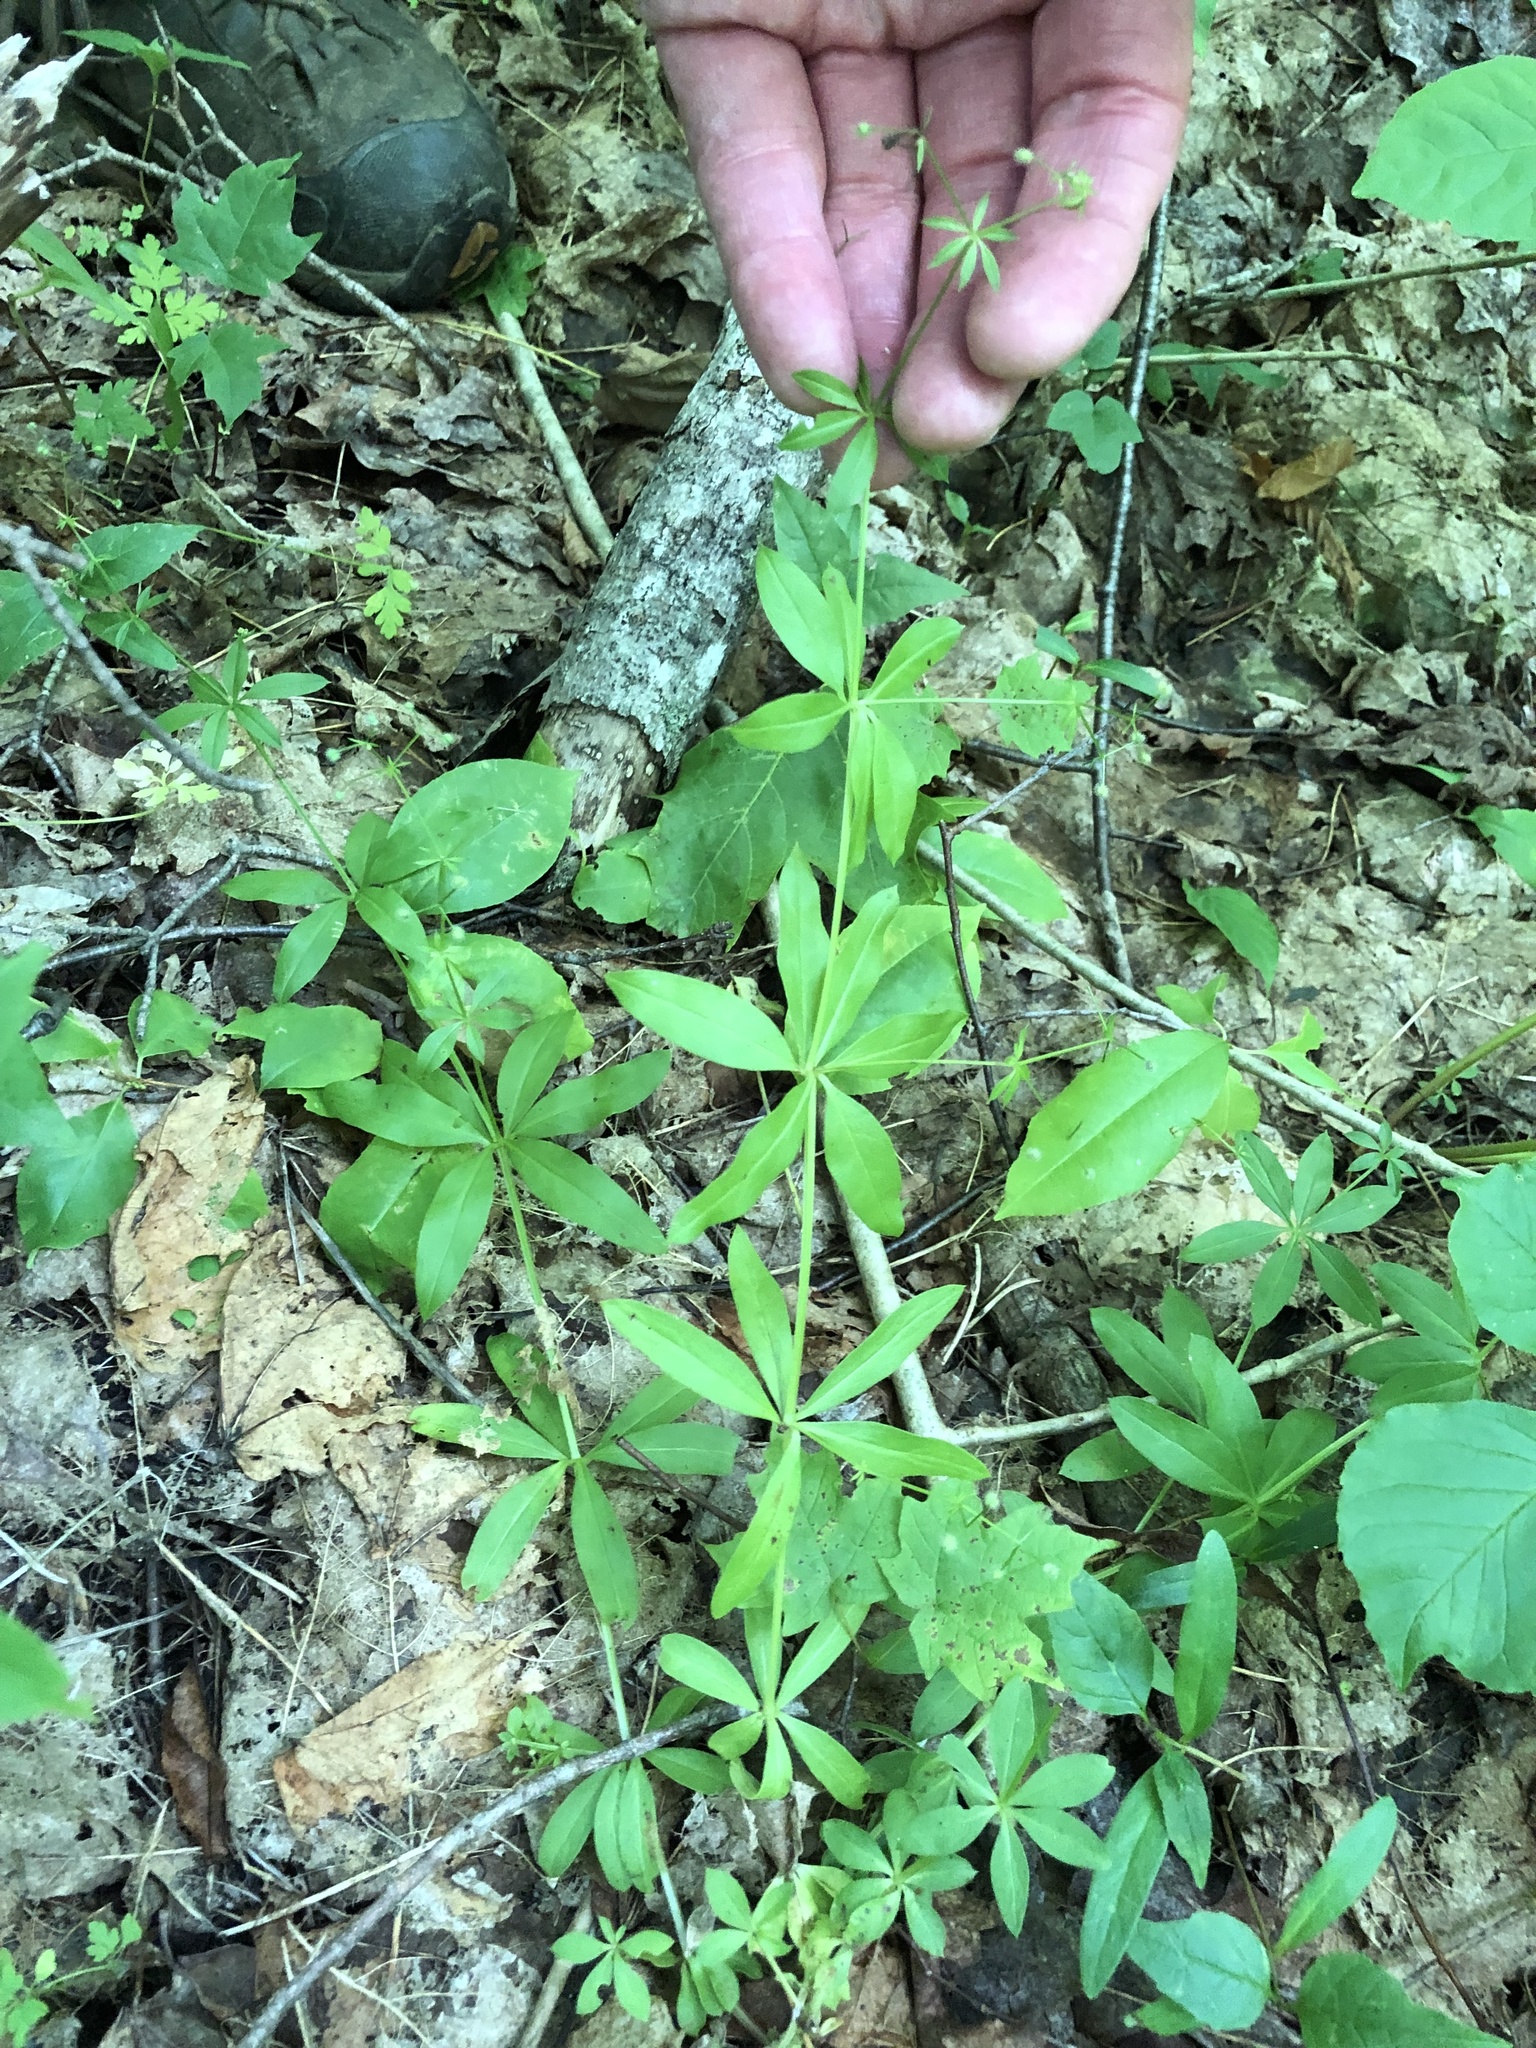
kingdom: Plantae
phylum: Tracheophyta
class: Magnoliopsida
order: Gentianales
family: Rubiaceae
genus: Galium
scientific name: Galium triflorum
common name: Fragrant bedstraw
